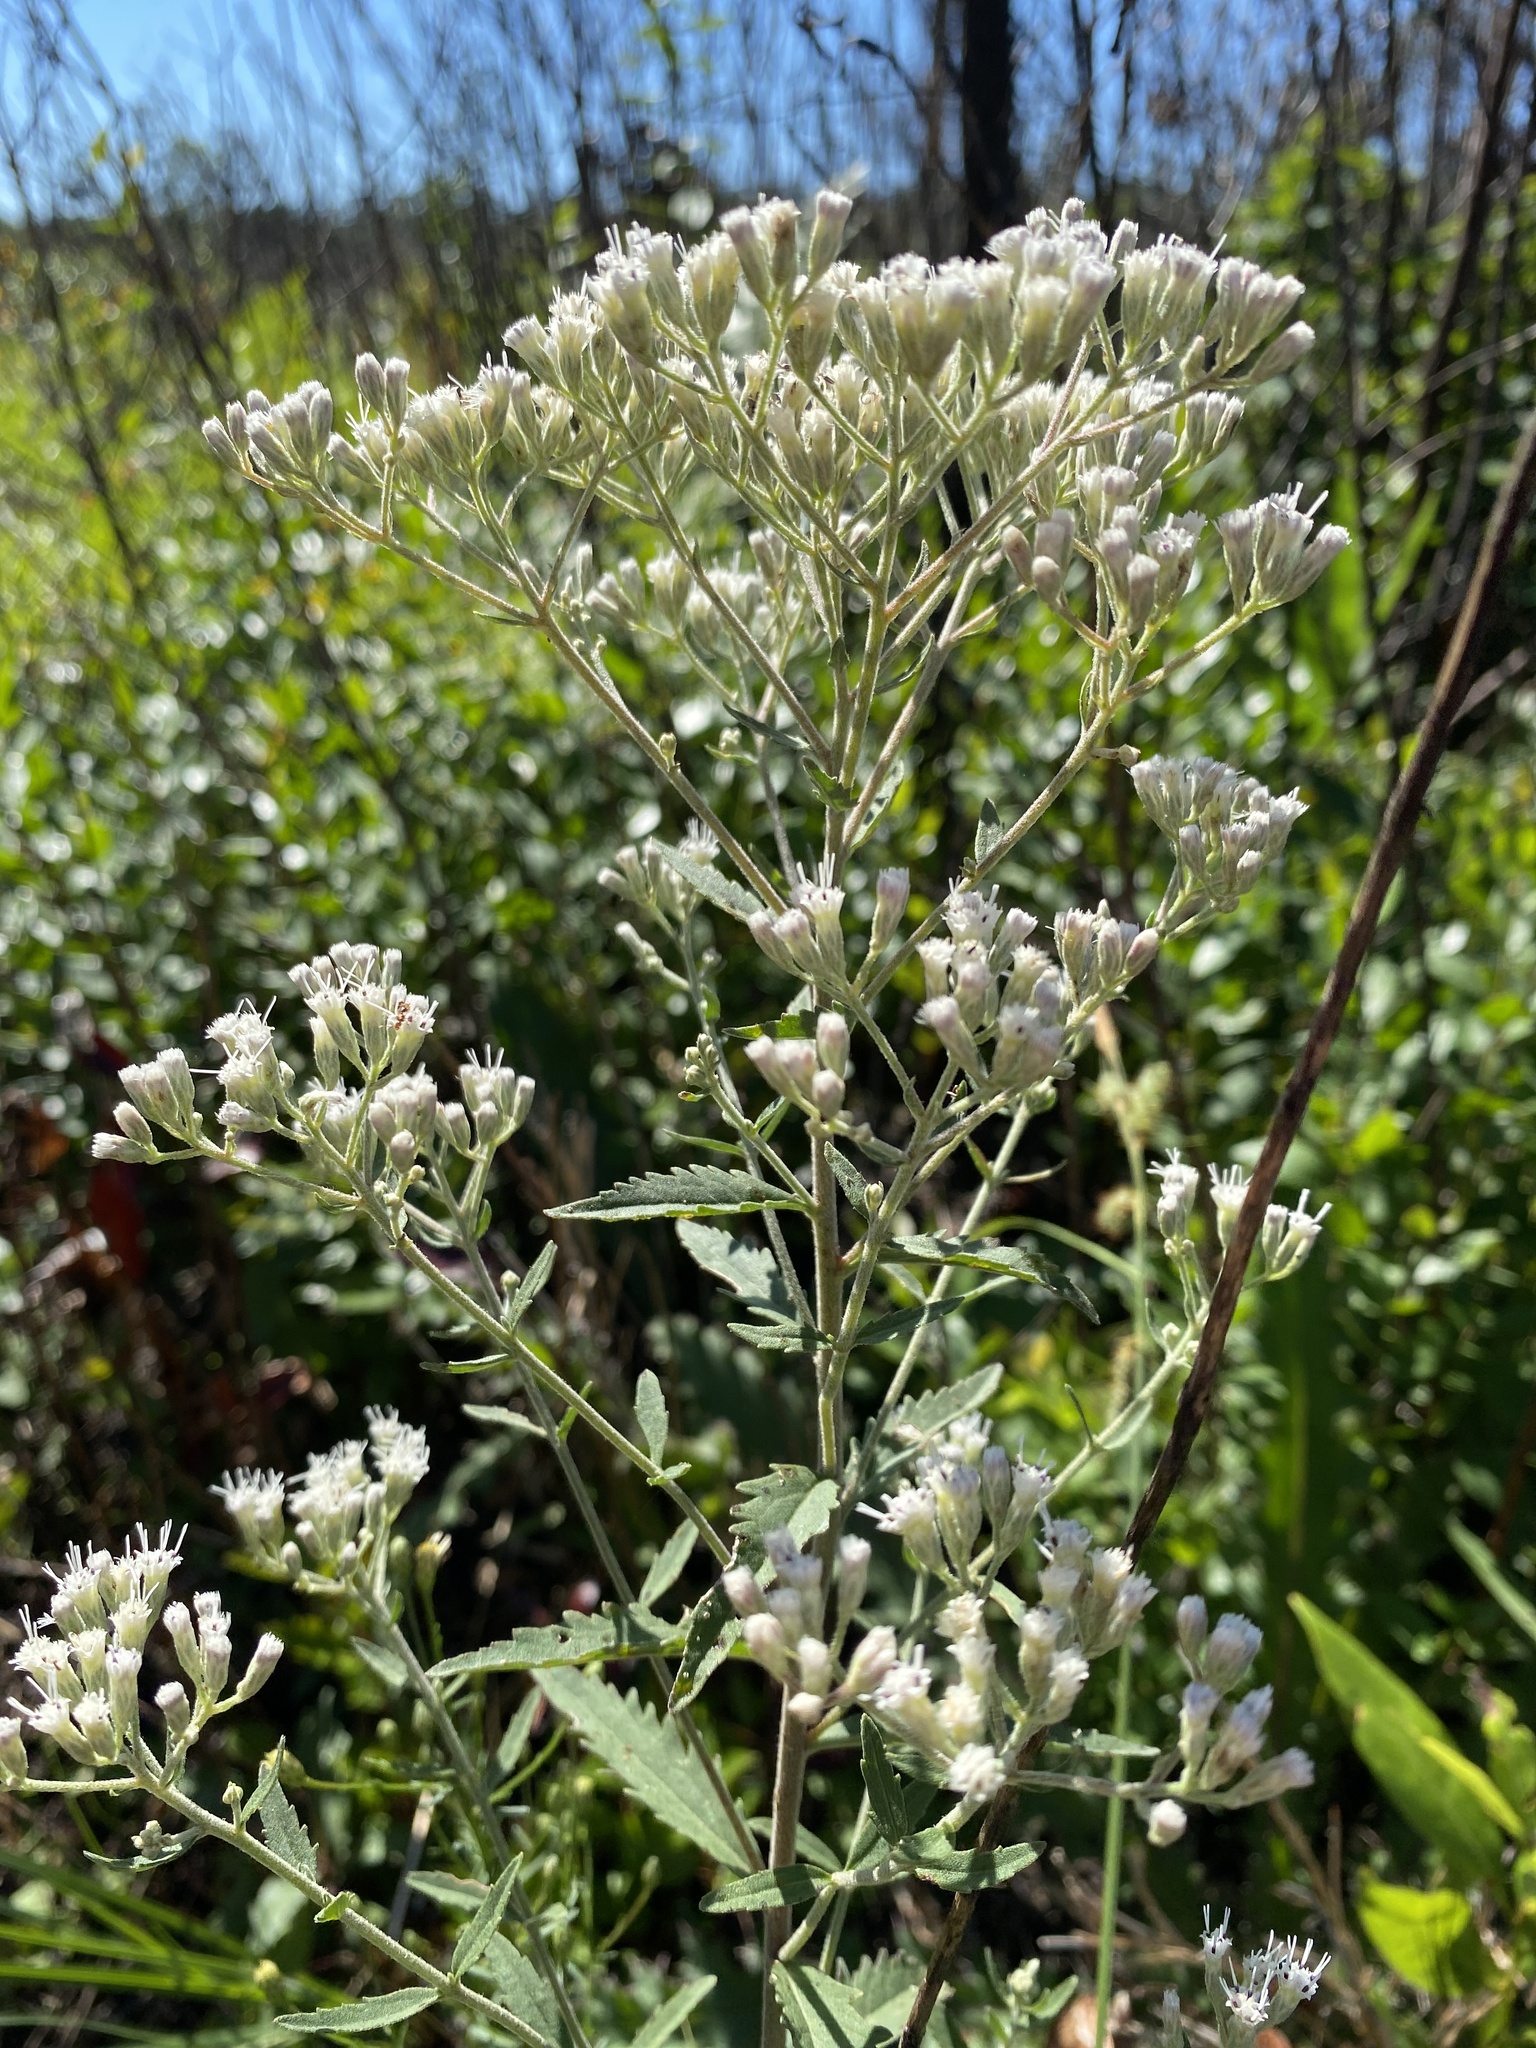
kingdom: Plantae
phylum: Tracheophyta
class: Magnoliopsida
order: Asterales
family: Asteraceae
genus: Eupatorium
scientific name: Eupatorium anomalum
